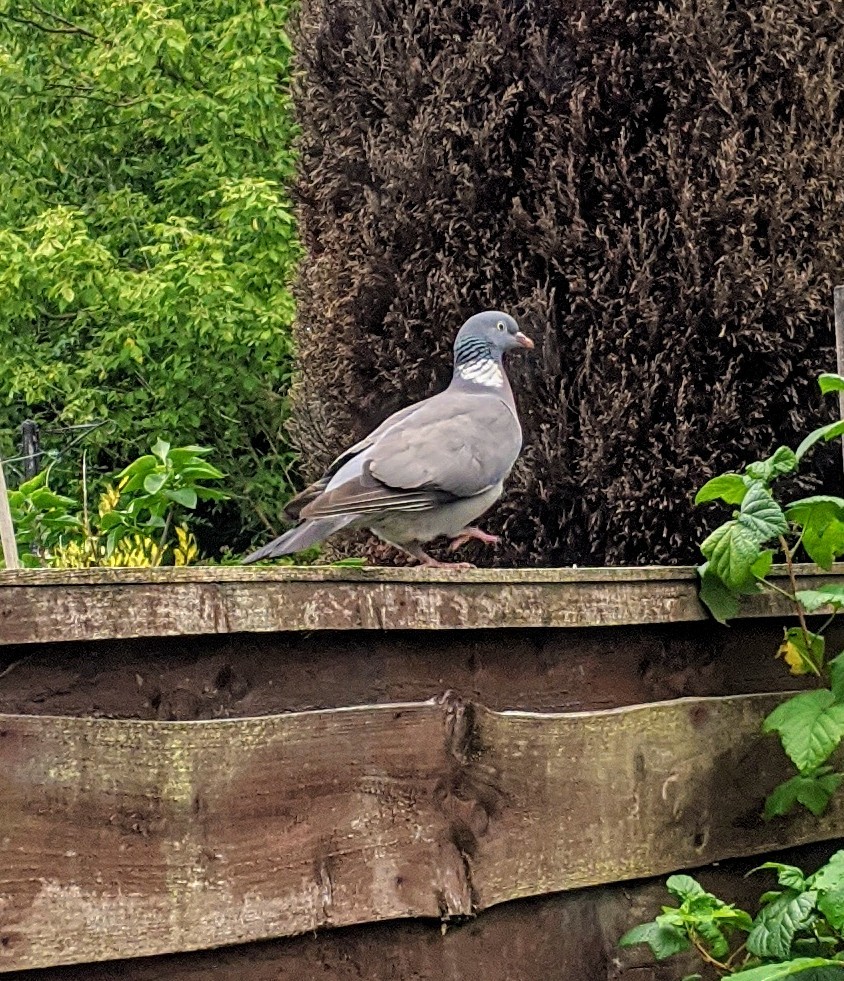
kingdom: Animalia
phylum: Chordata
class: Aves
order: Columbiformes
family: Columbidae
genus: Columba
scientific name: Columba palumbus
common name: Common wood pigeon
